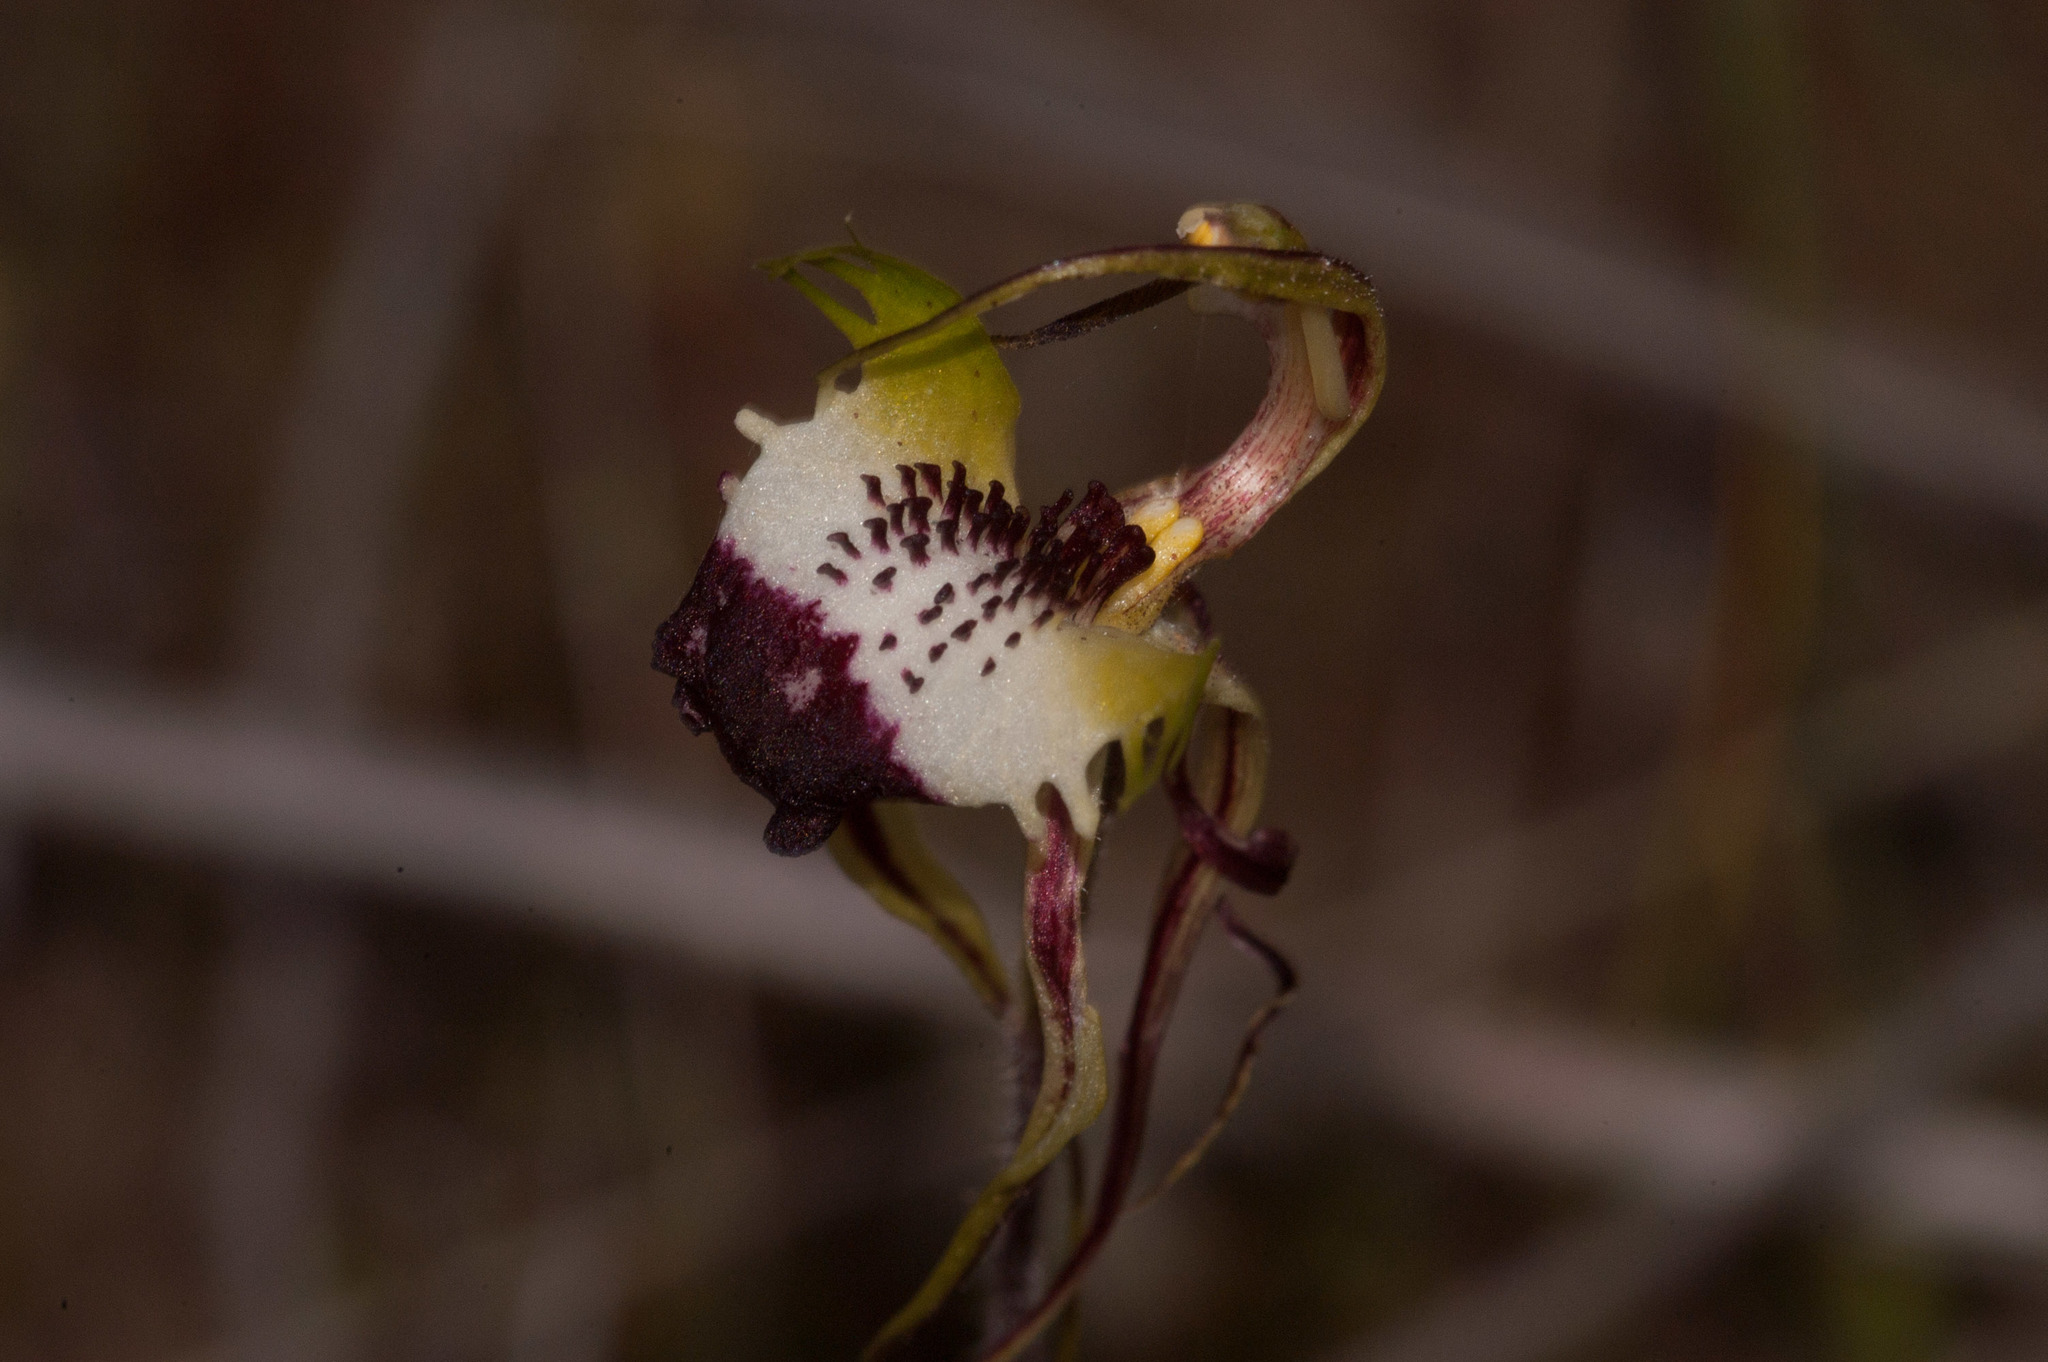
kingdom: Plantae
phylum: Tracheophyta
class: Liliopsida
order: Asparagales
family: Orchidaceae
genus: Caladenia
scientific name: Caladenia tentaculata
